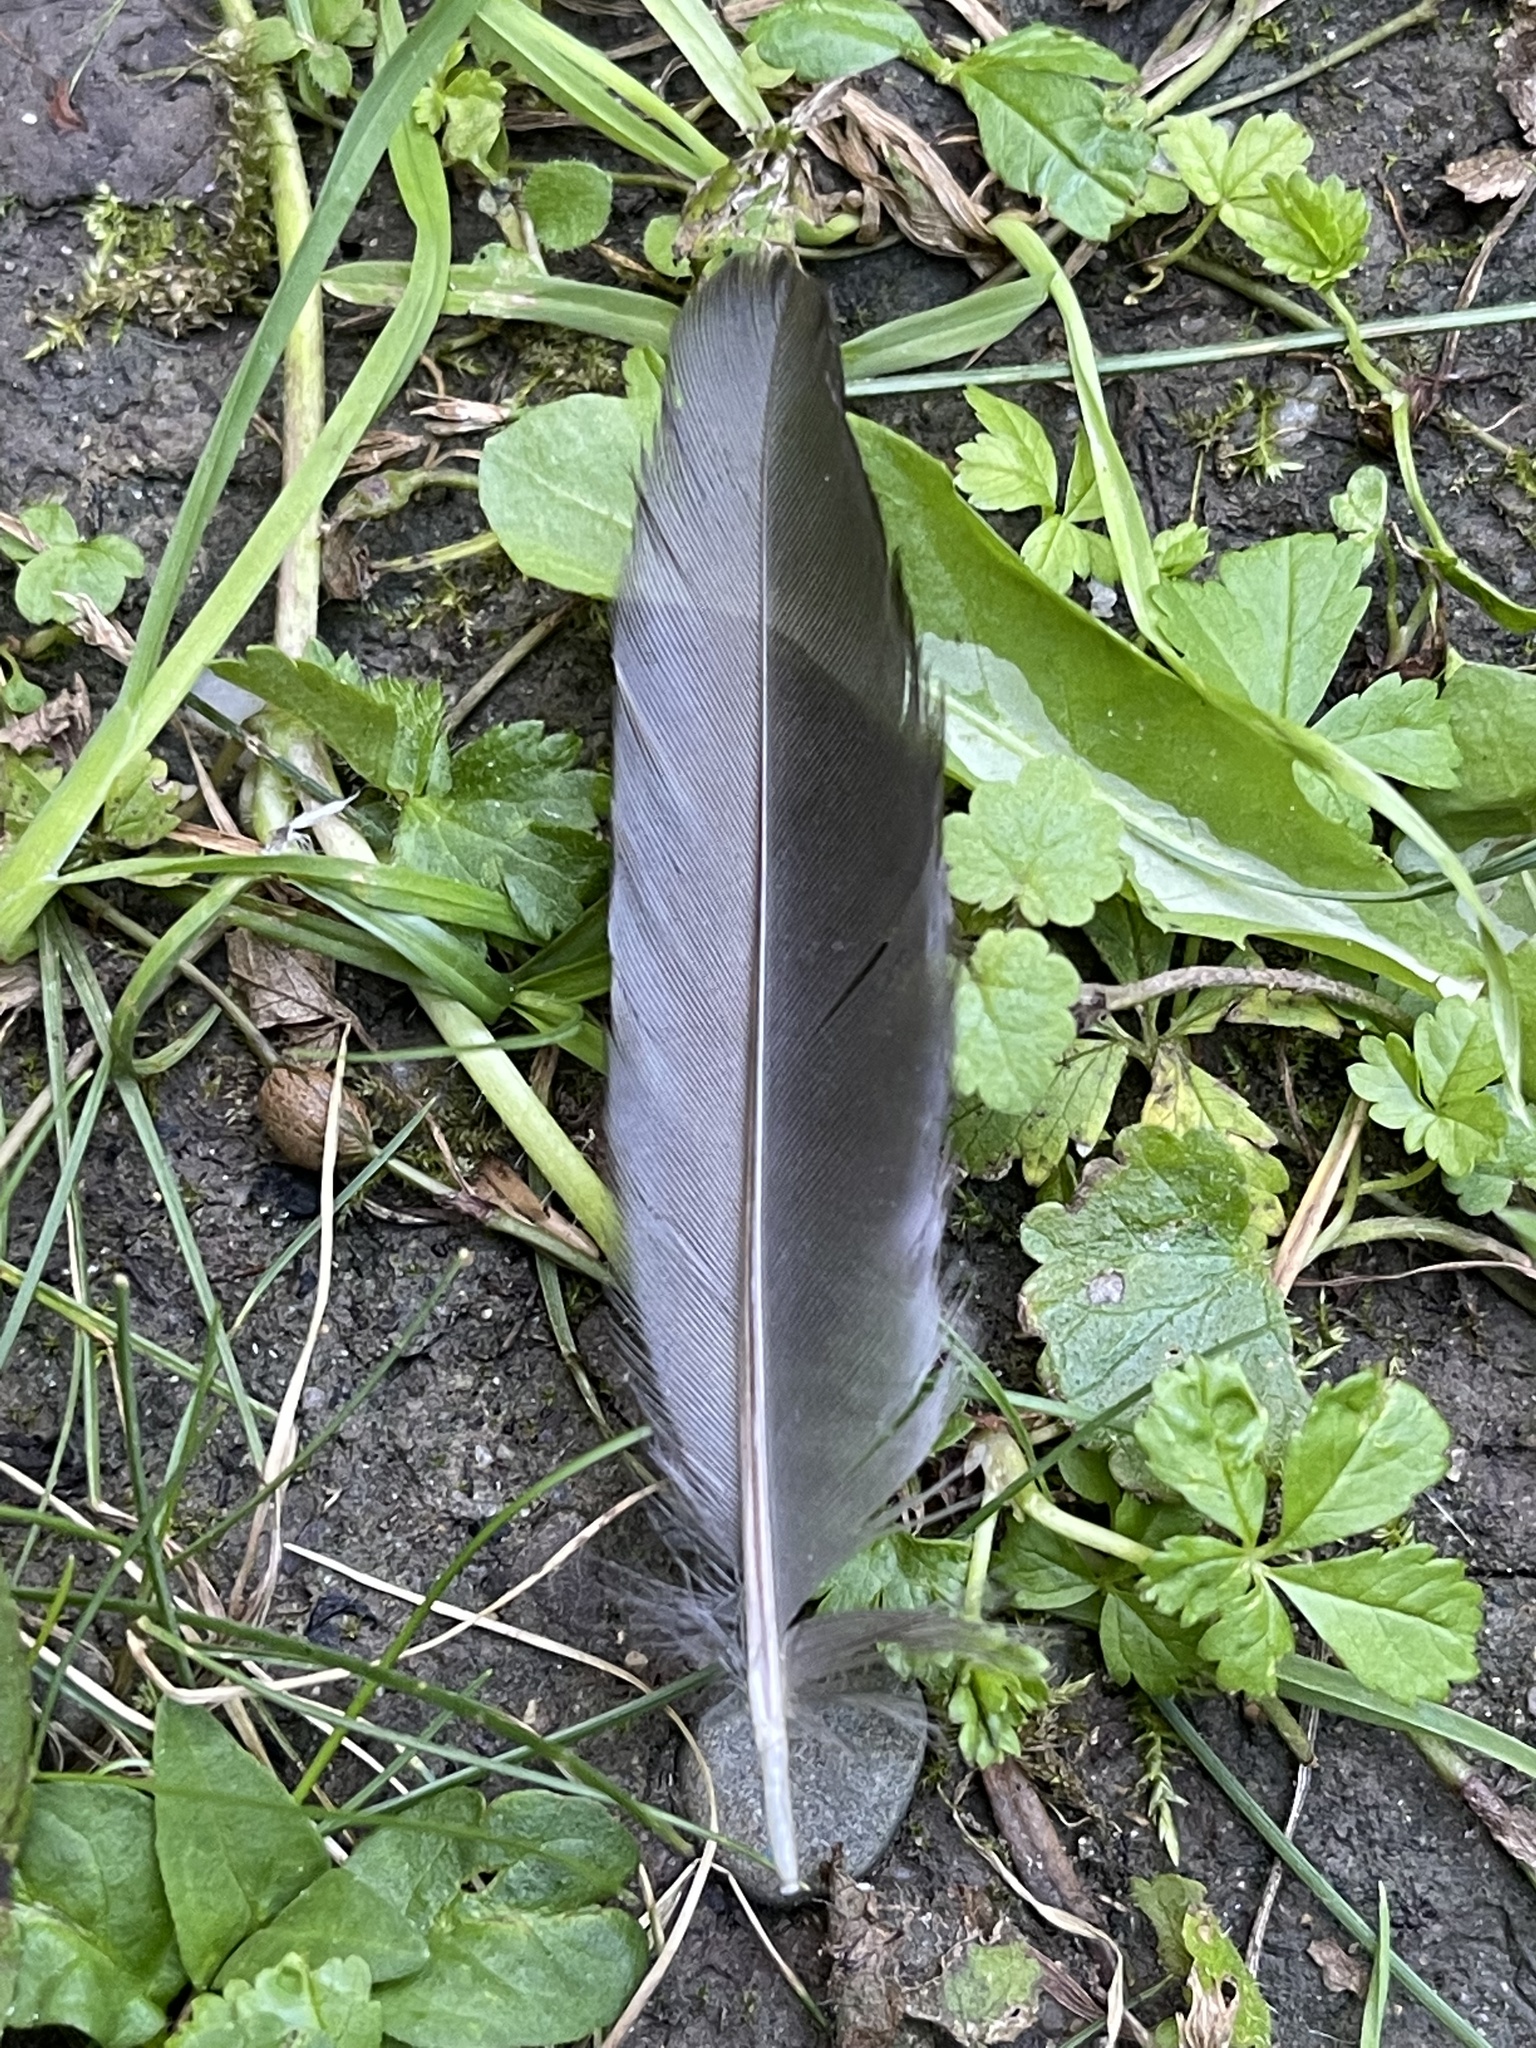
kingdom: Animalia
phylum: Chordata
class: Aves
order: Passeriformes
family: Turdidae
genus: Turdus
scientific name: Turdus merula
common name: Common blackbird
